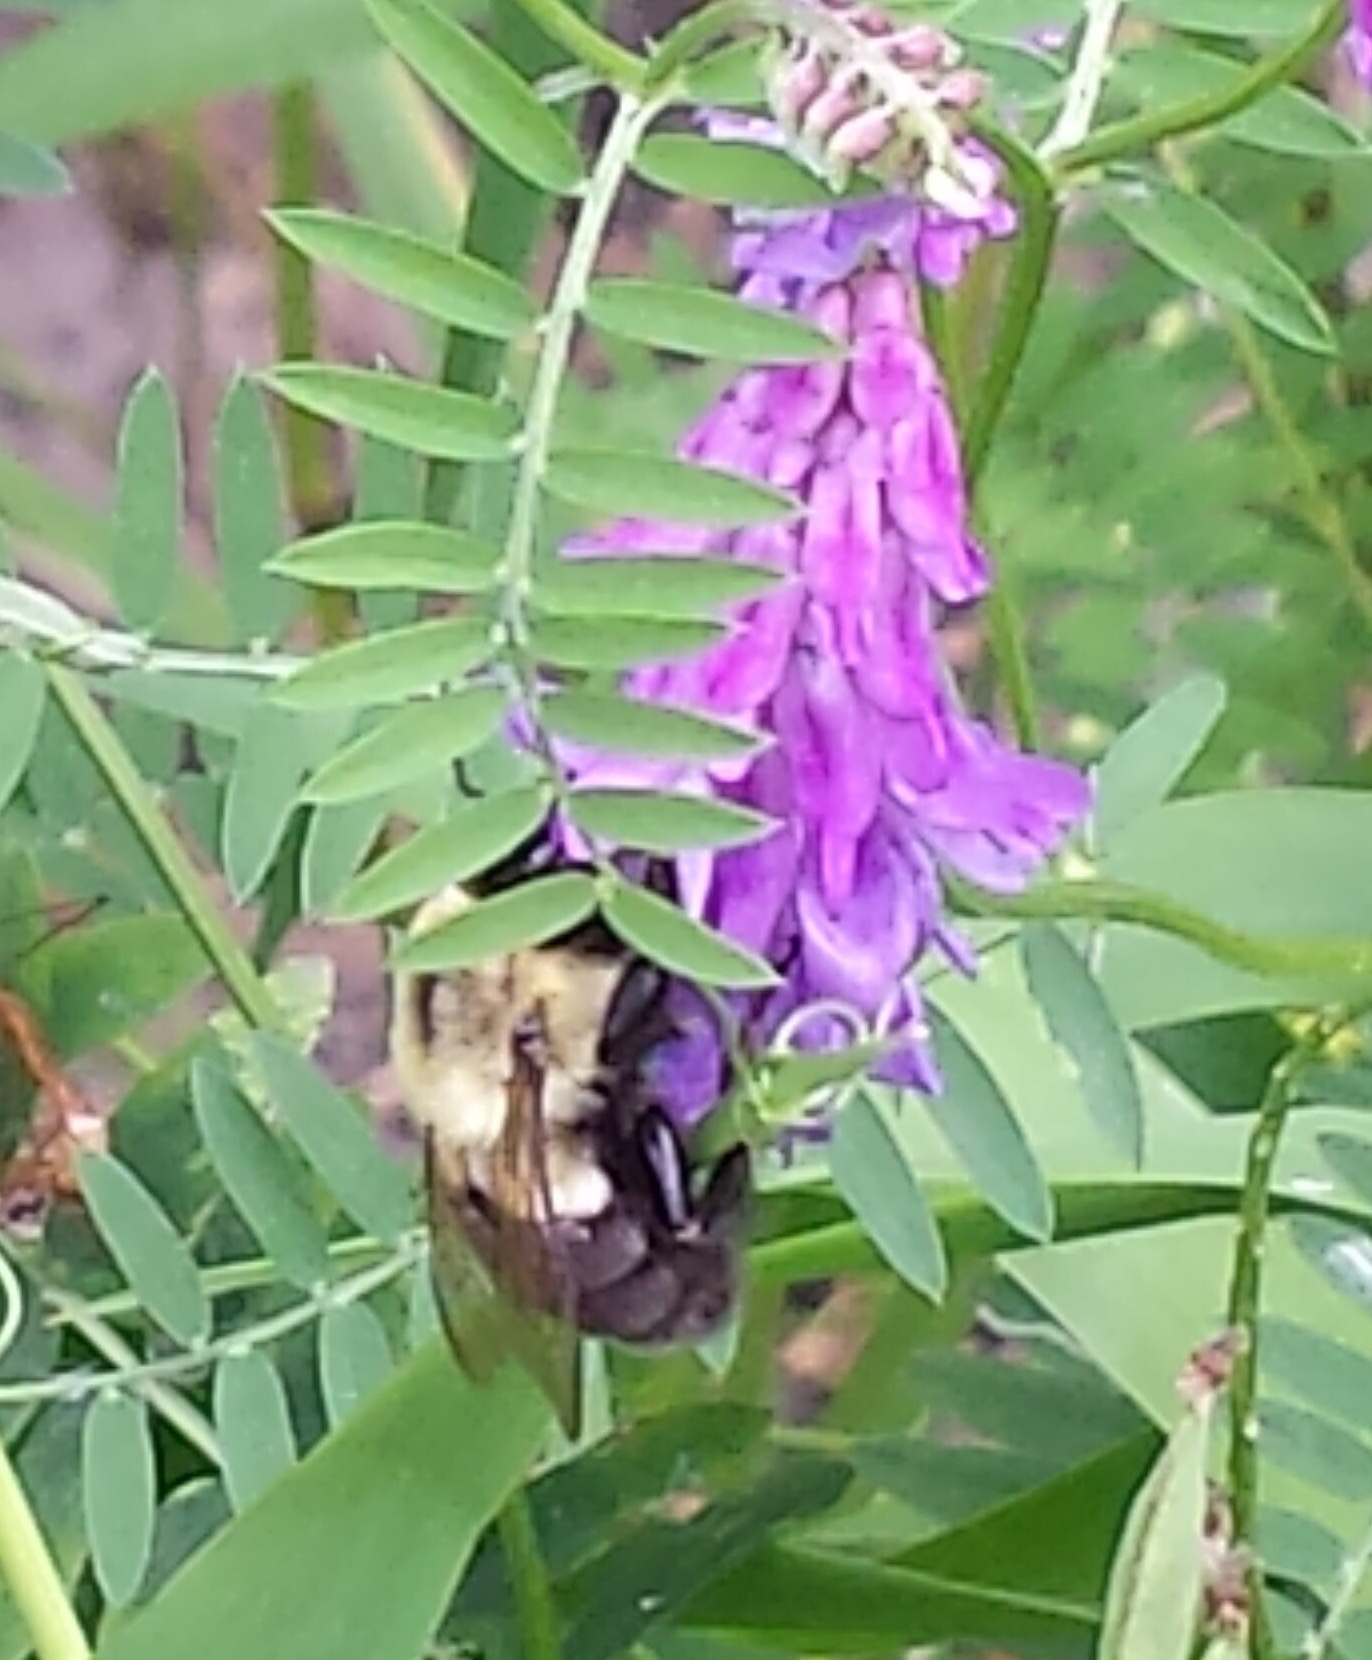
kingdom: Animalia
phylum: Arthropoda
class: Insecta
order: Hymenoptera
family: Apidae
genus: Bombus
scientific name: Bombus impatiens
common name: Common eastern bumble bee
